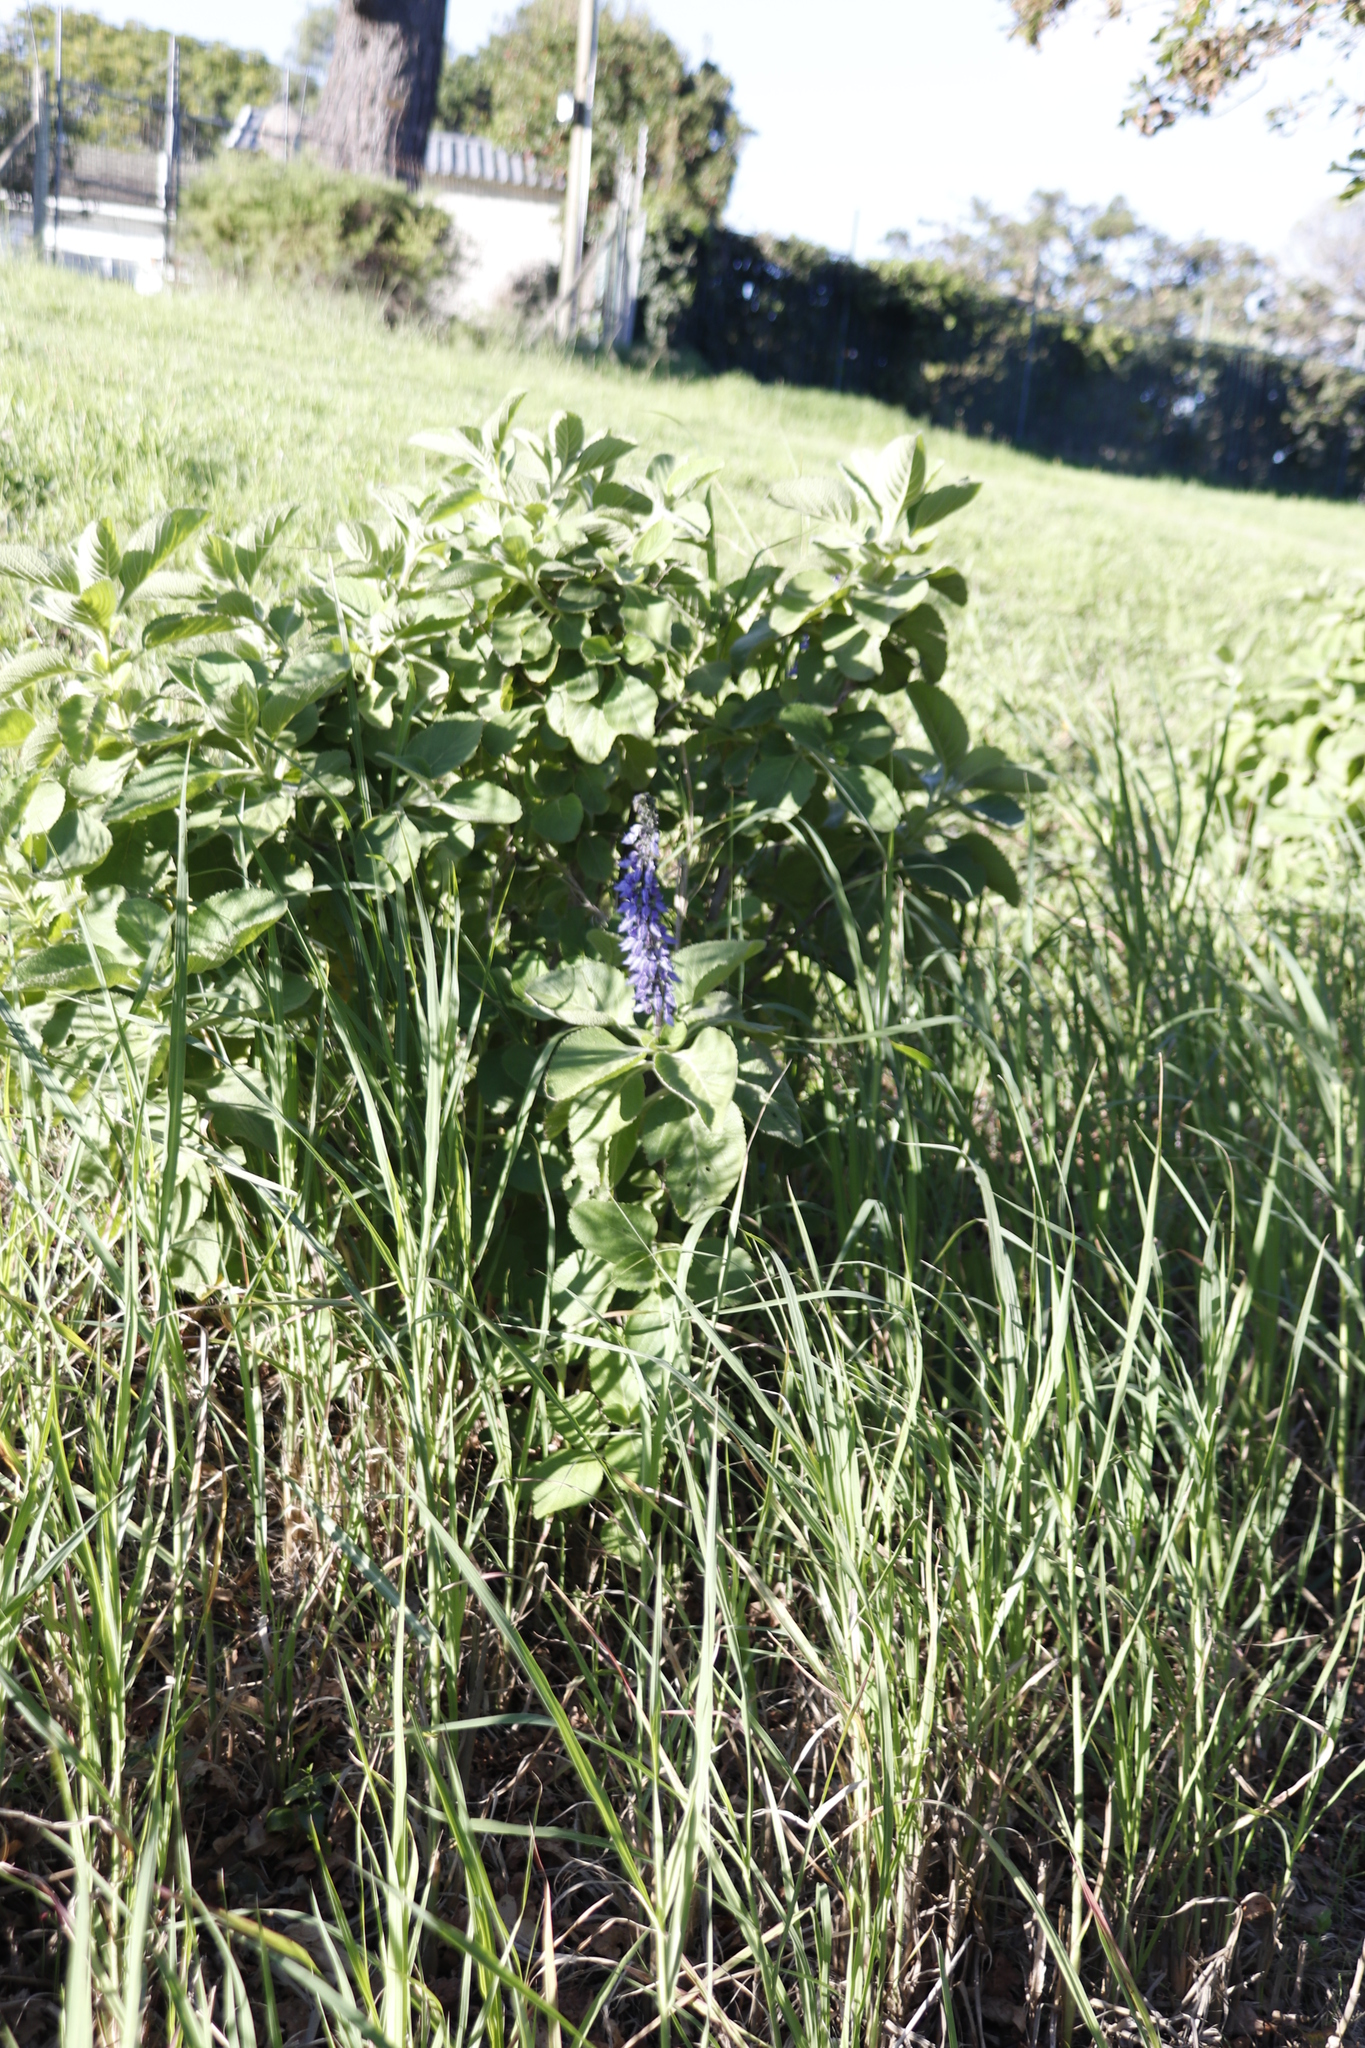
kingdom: Plantae
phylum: Tracheophyta
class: Magnoliopsida
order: Lamiales
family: Lamiaceae
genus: Coleus
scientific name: Coleus barbatus
